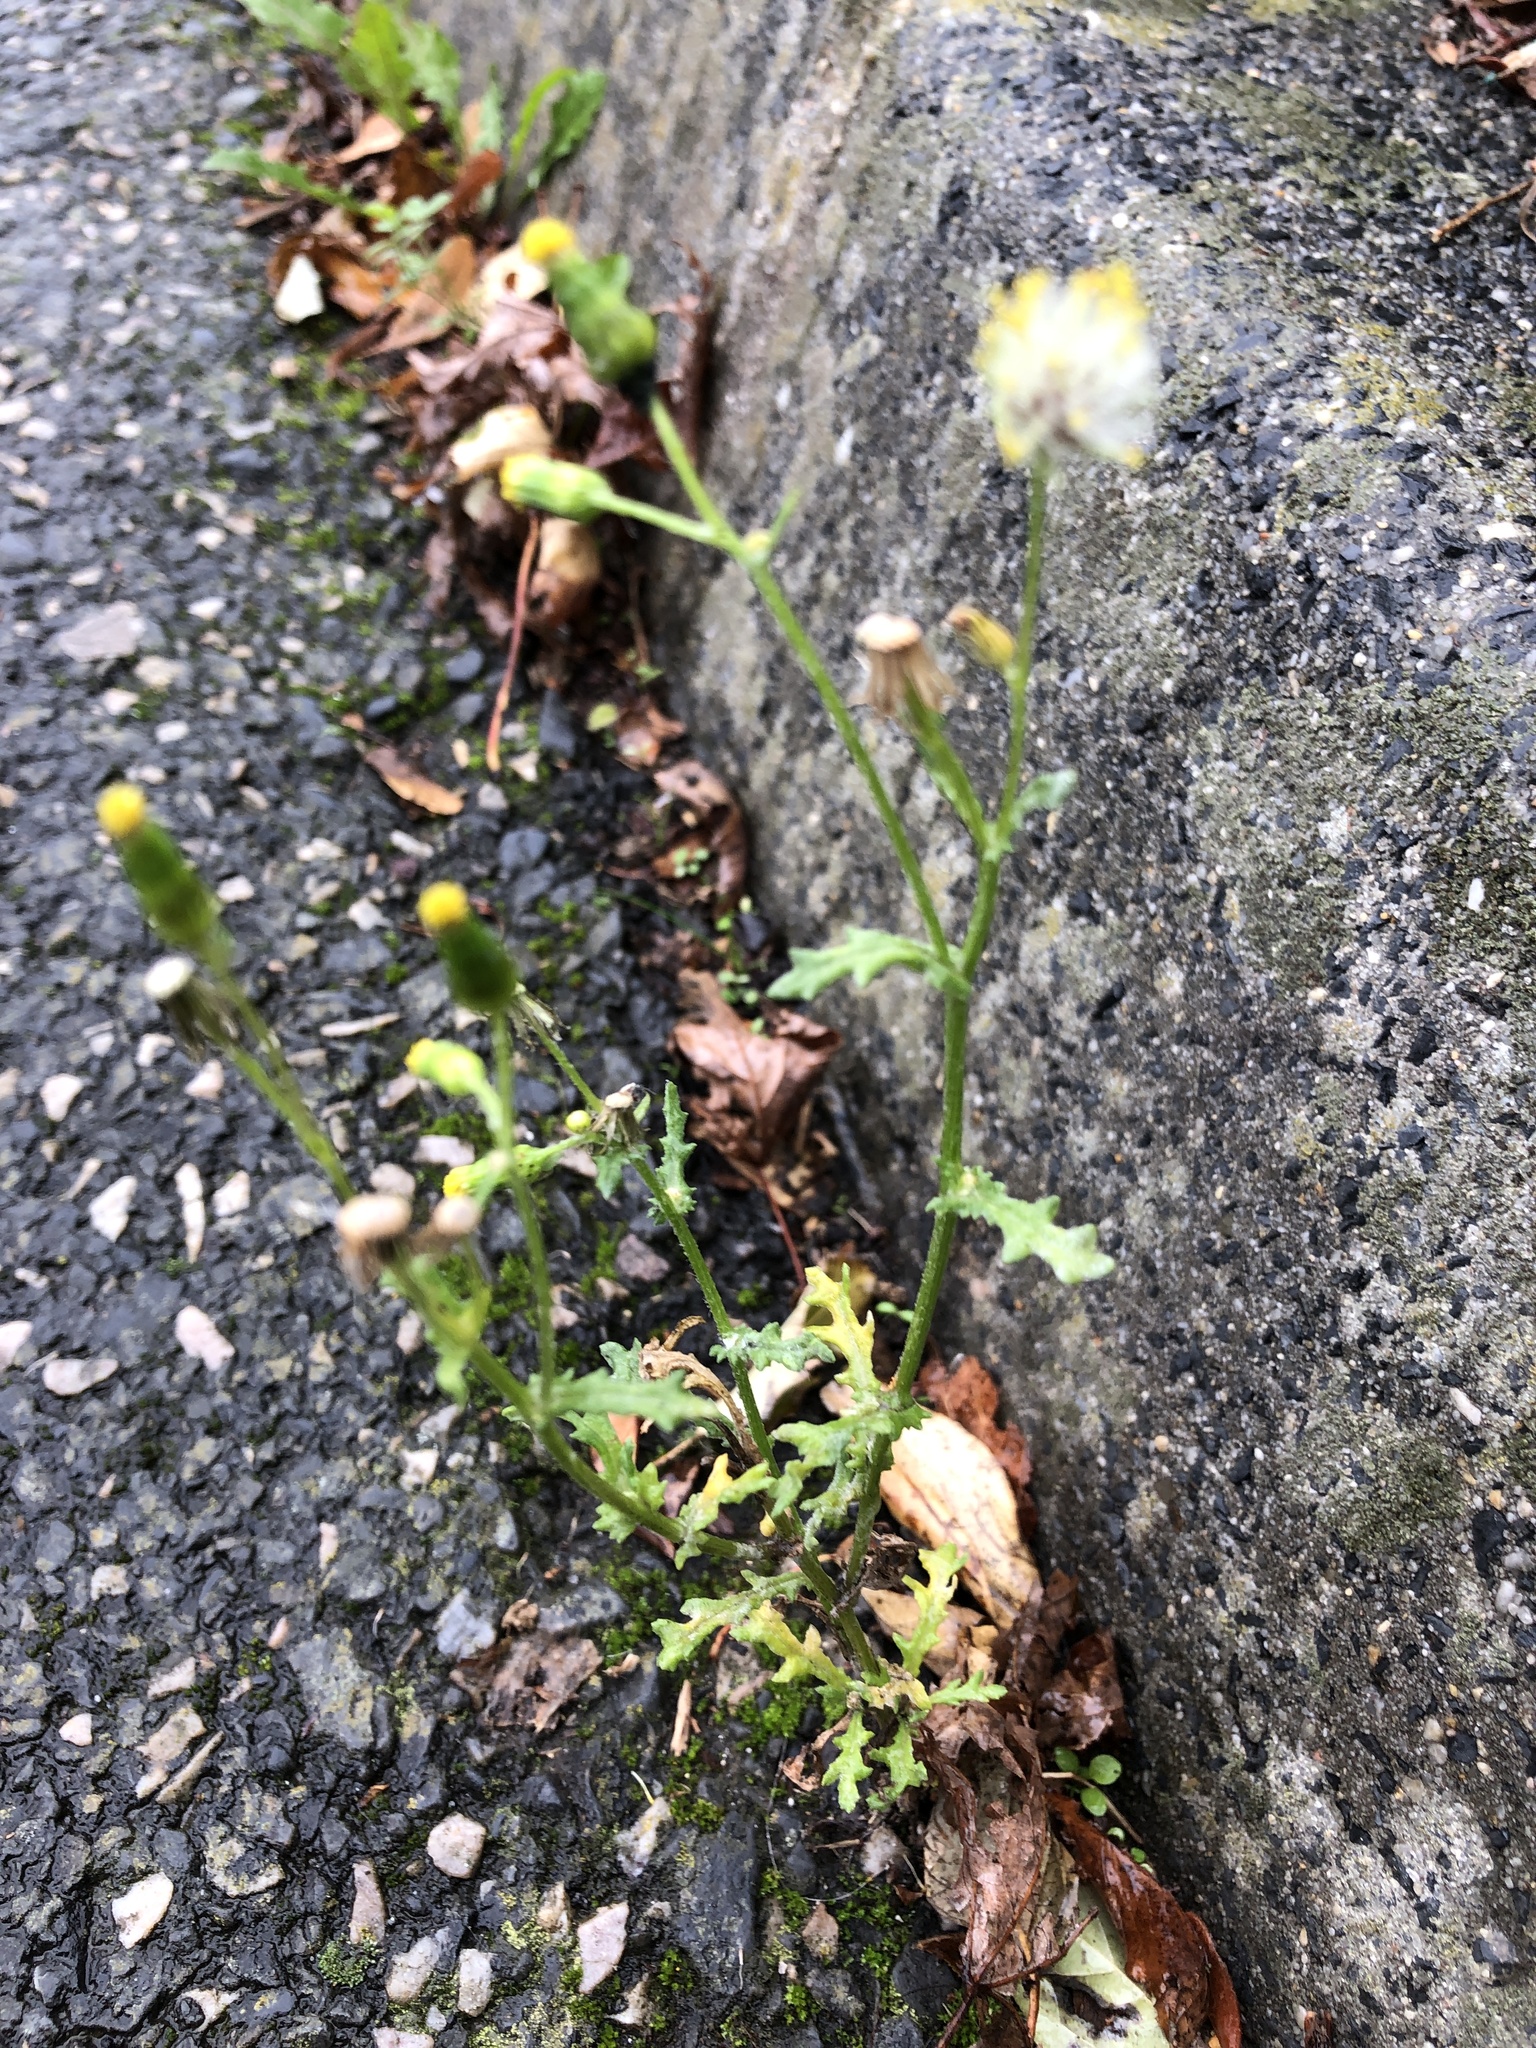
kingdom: Plantae
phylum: Tracheophyta
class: Magnoliopsida
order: Asterales
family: Asteraceae
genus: Senecio
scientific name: Senecio vulgaris
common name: Old-man-in-the-spring
